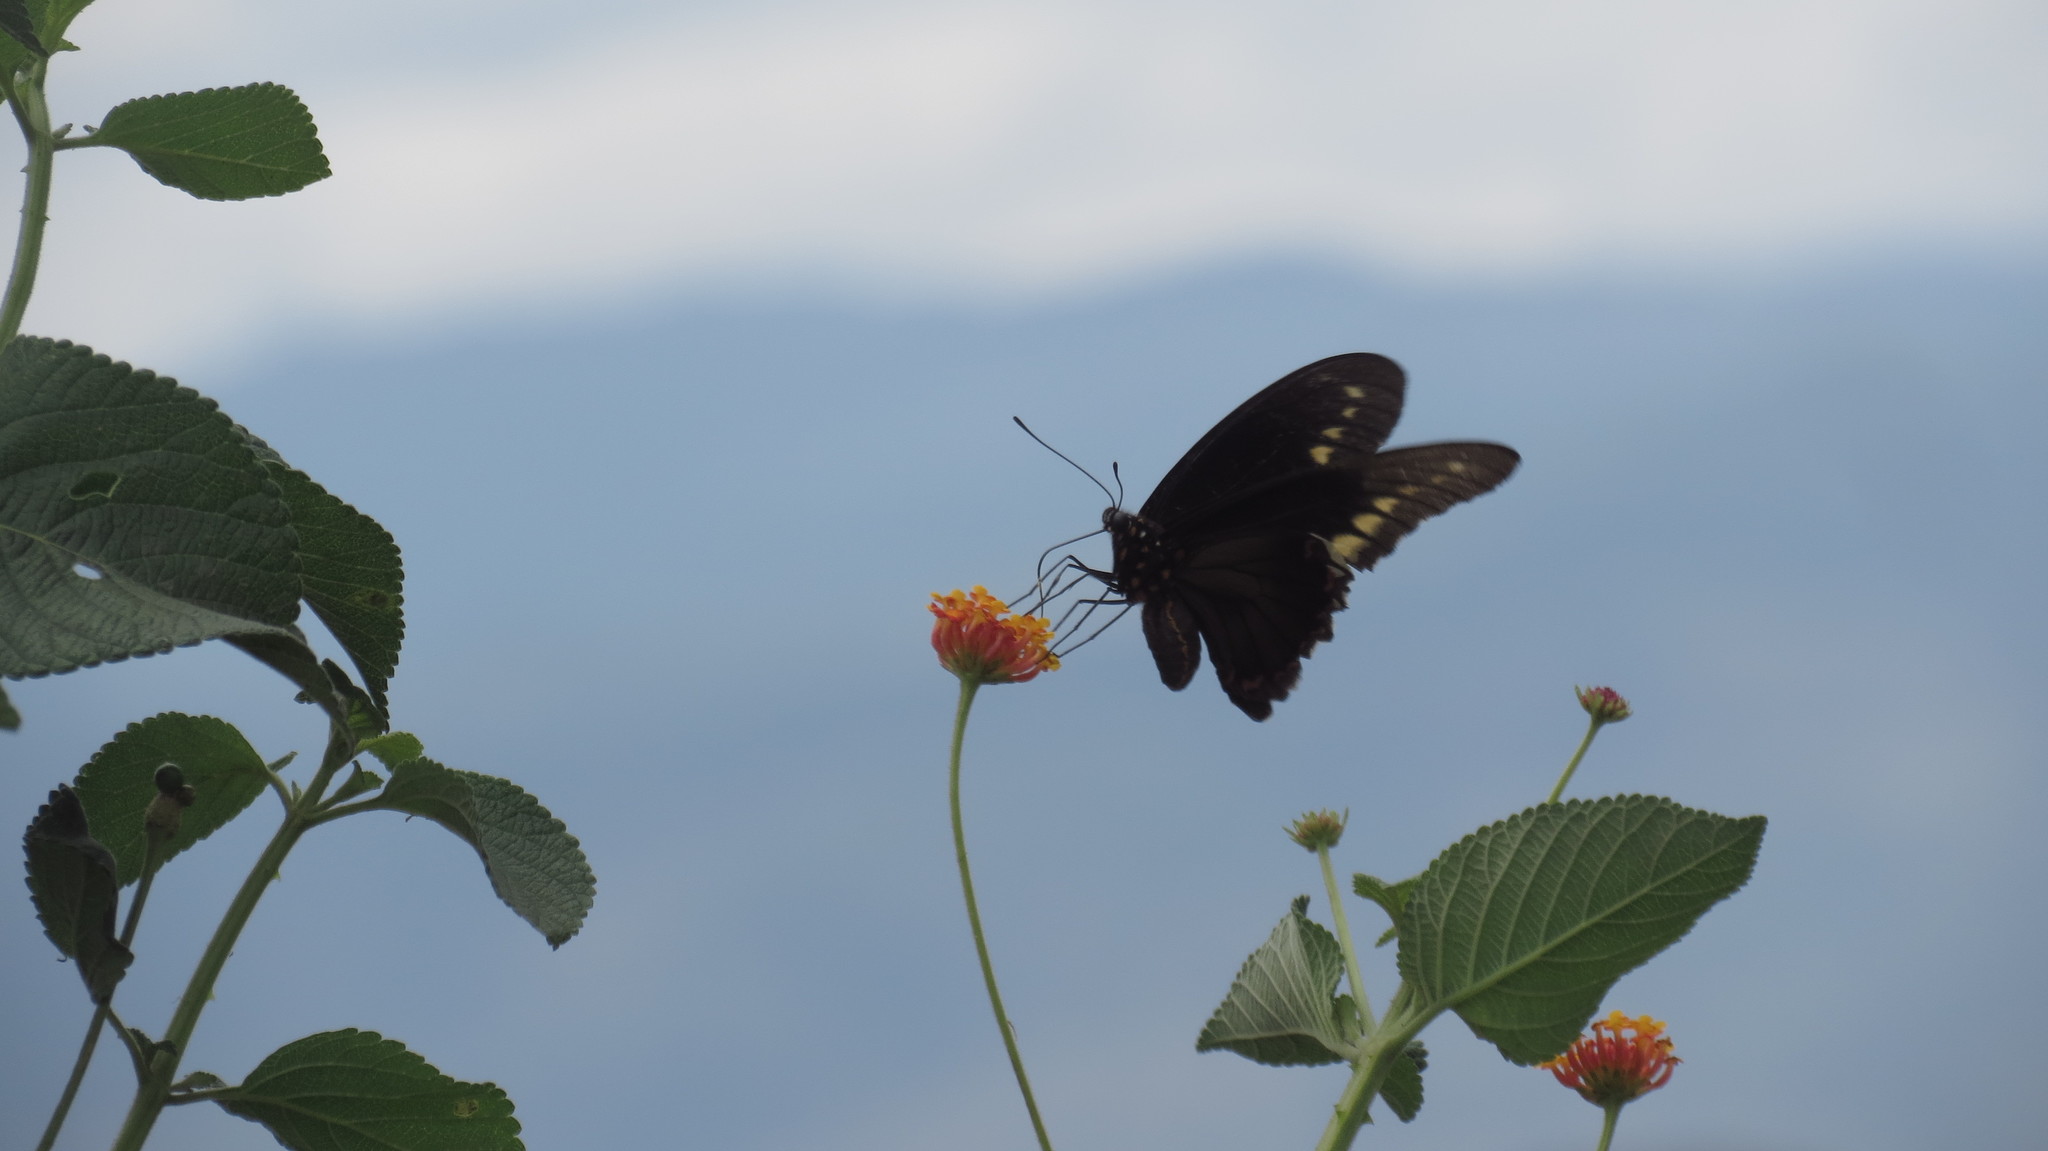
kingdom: Animalia
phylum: Arthropoda
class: Insecta
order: Lepidoptera
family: Papilionidae
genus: Battus
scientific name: Battus polydamas
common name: Polydamas swallowtail
